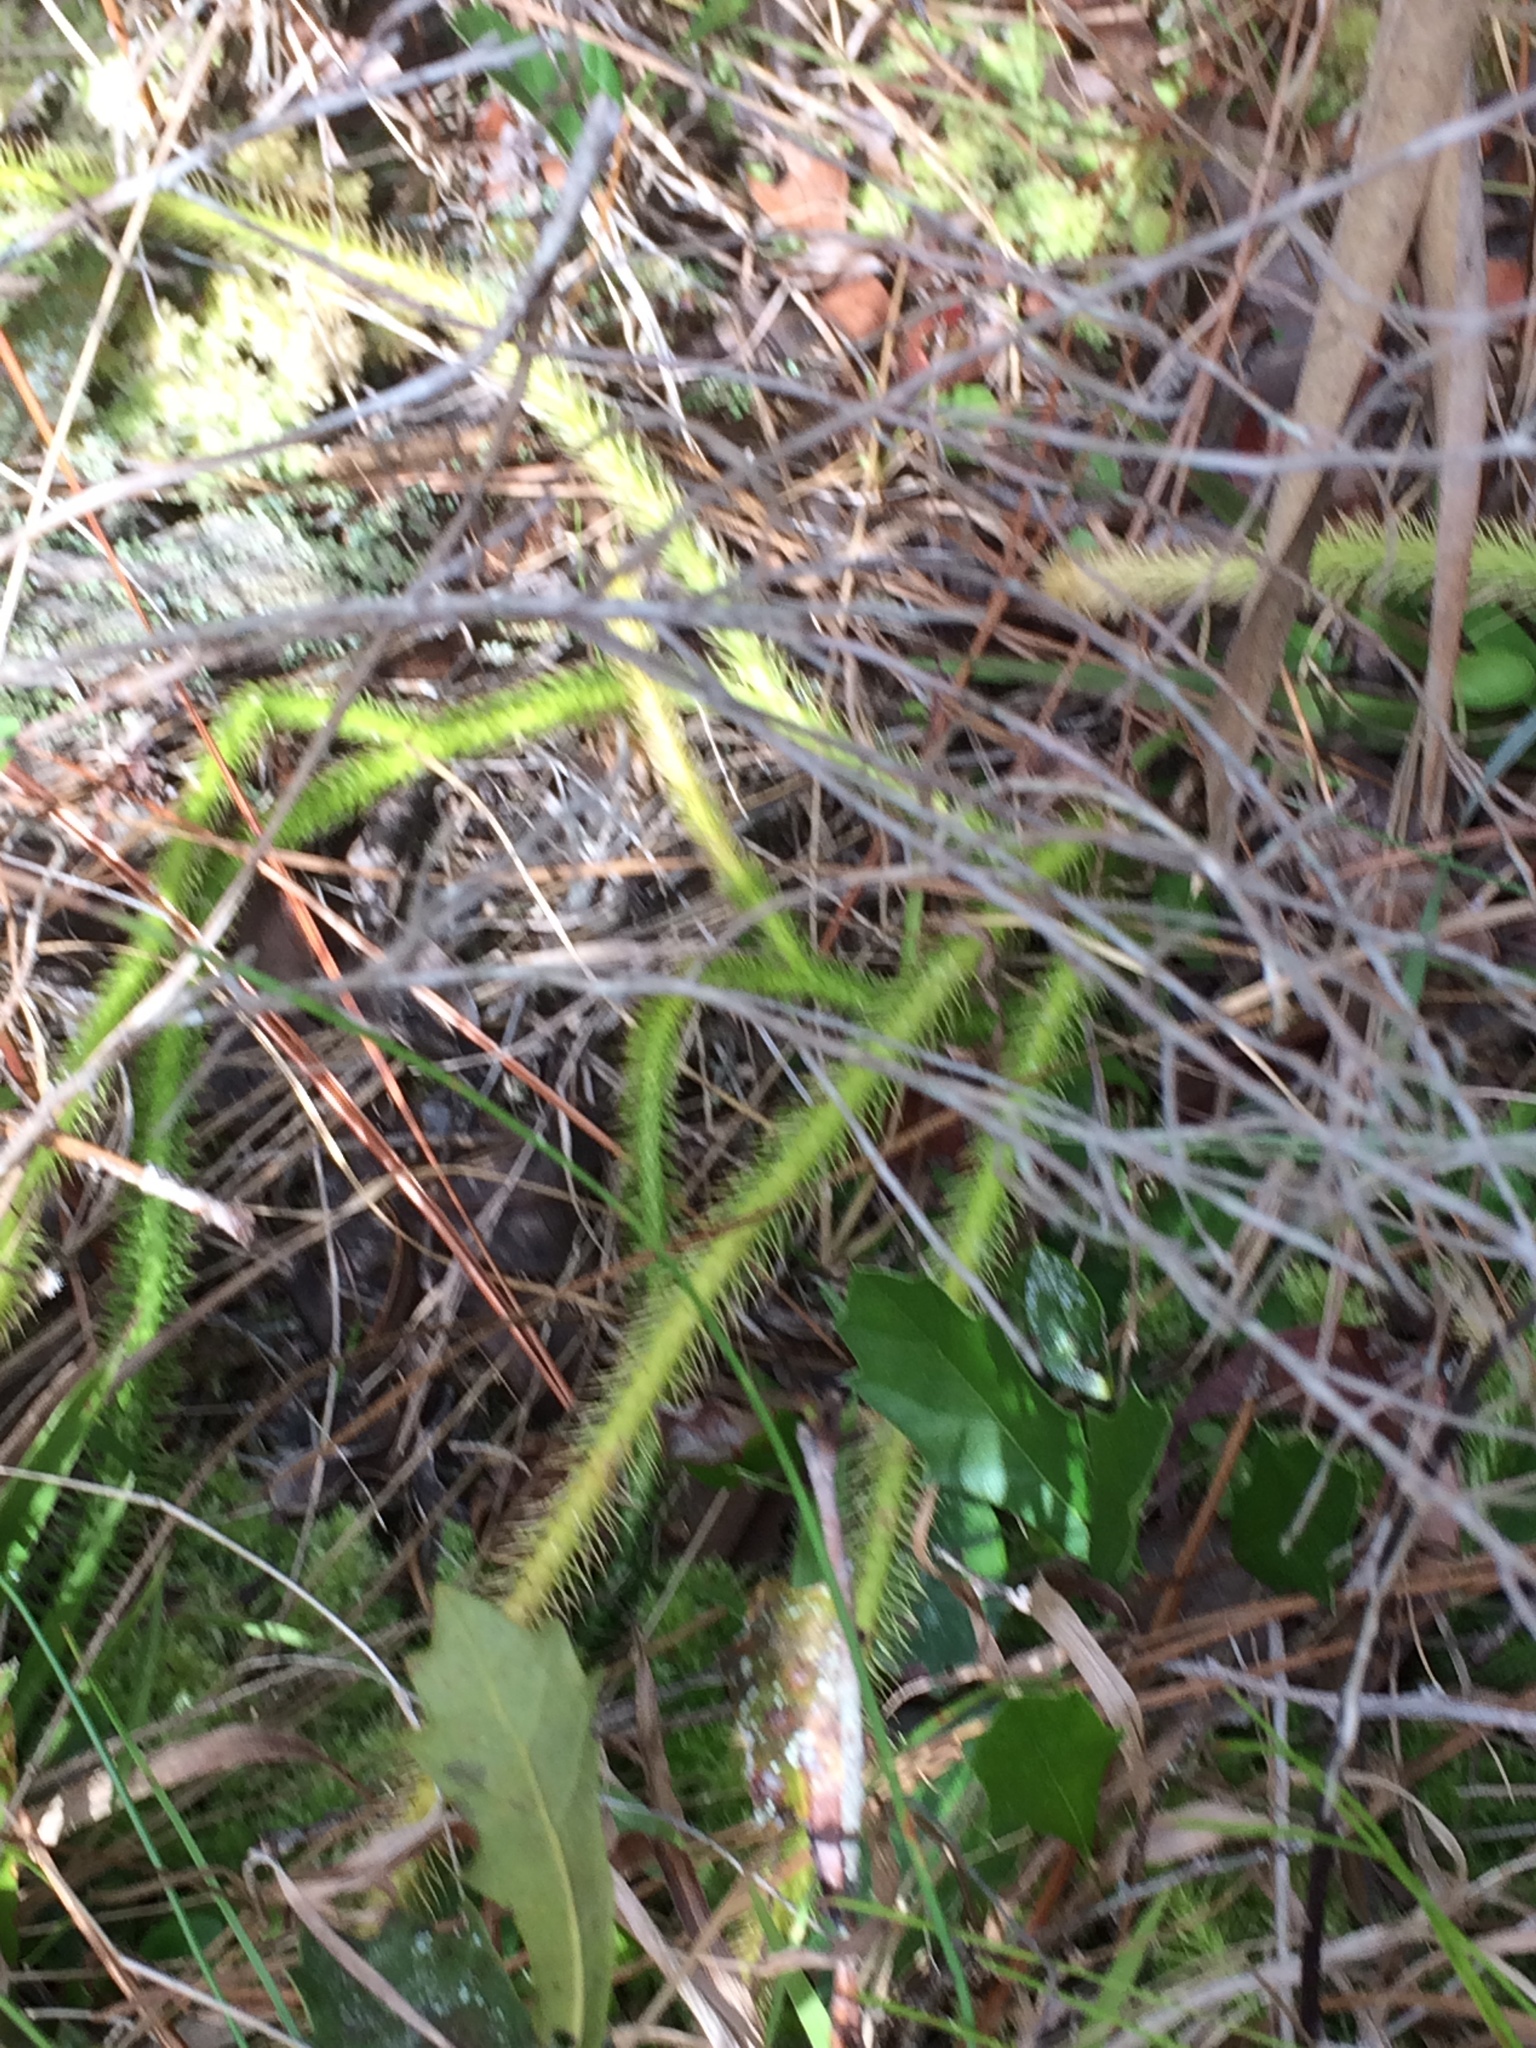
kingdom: Plantae
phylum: Tracheophyta
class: Lycopodiopsida
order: Lycopodiales
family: Lycopodiaceae
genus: Lycopodiella
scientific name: Lycopodiella alopecuroides
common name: Foxtail clubmoss
